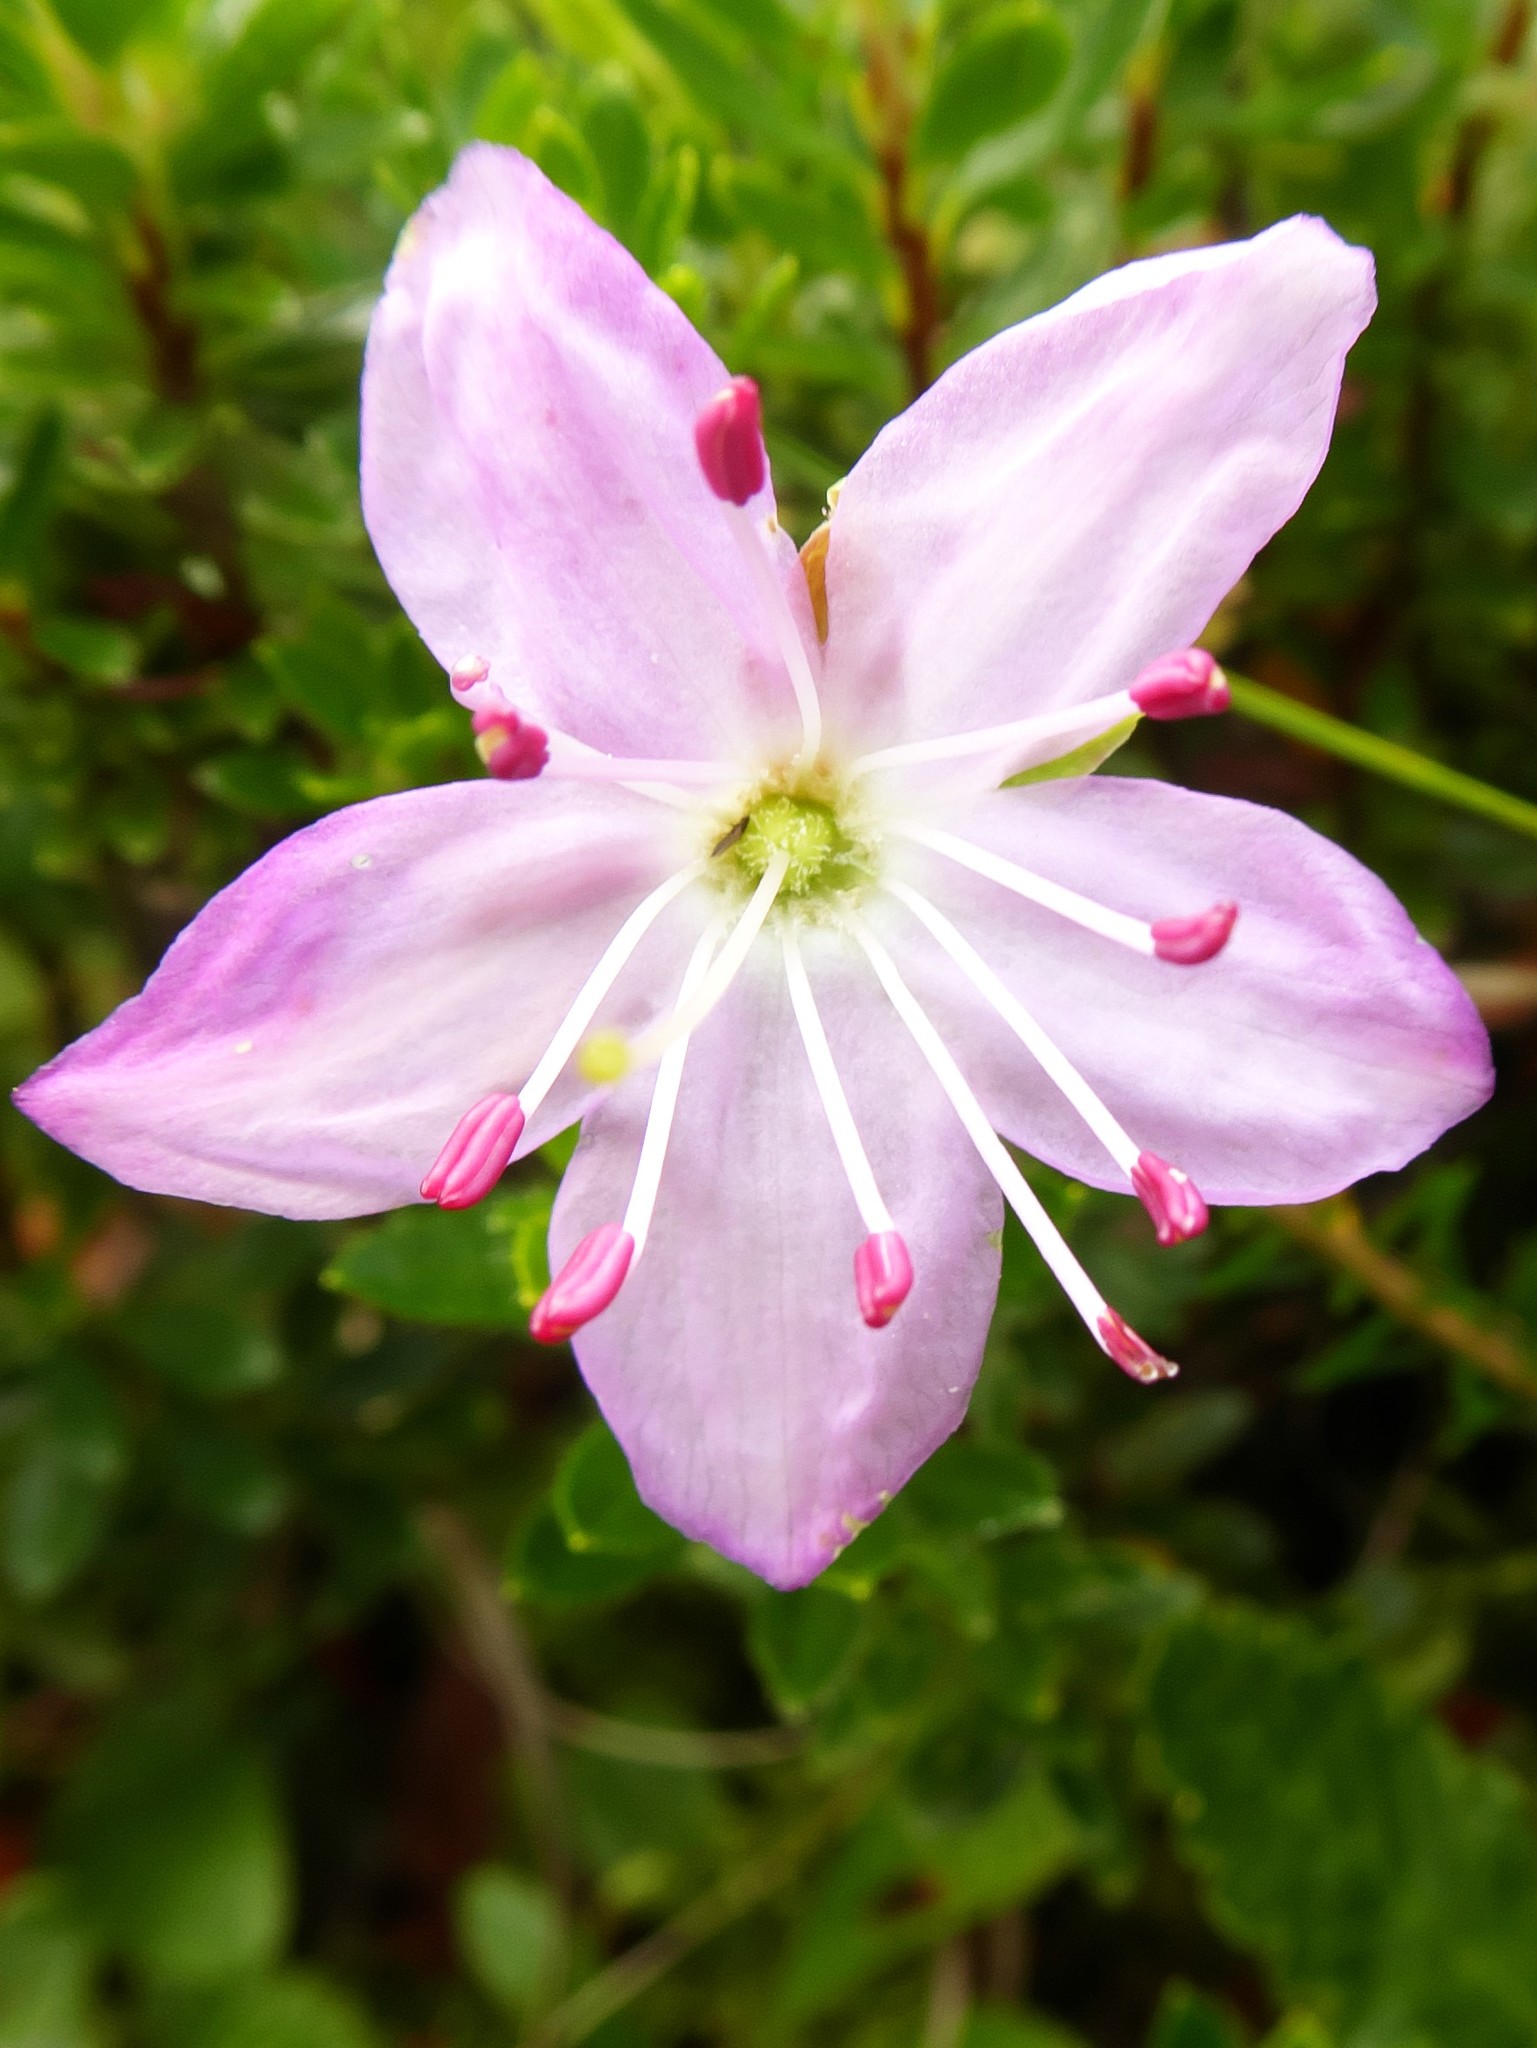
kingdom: Plantae
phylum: Tracheophyta
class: Magnoliopsida
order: Ericales
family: Ericaceae
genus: Rhodothamnus
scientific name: Rhodothamnus chamaecistus
